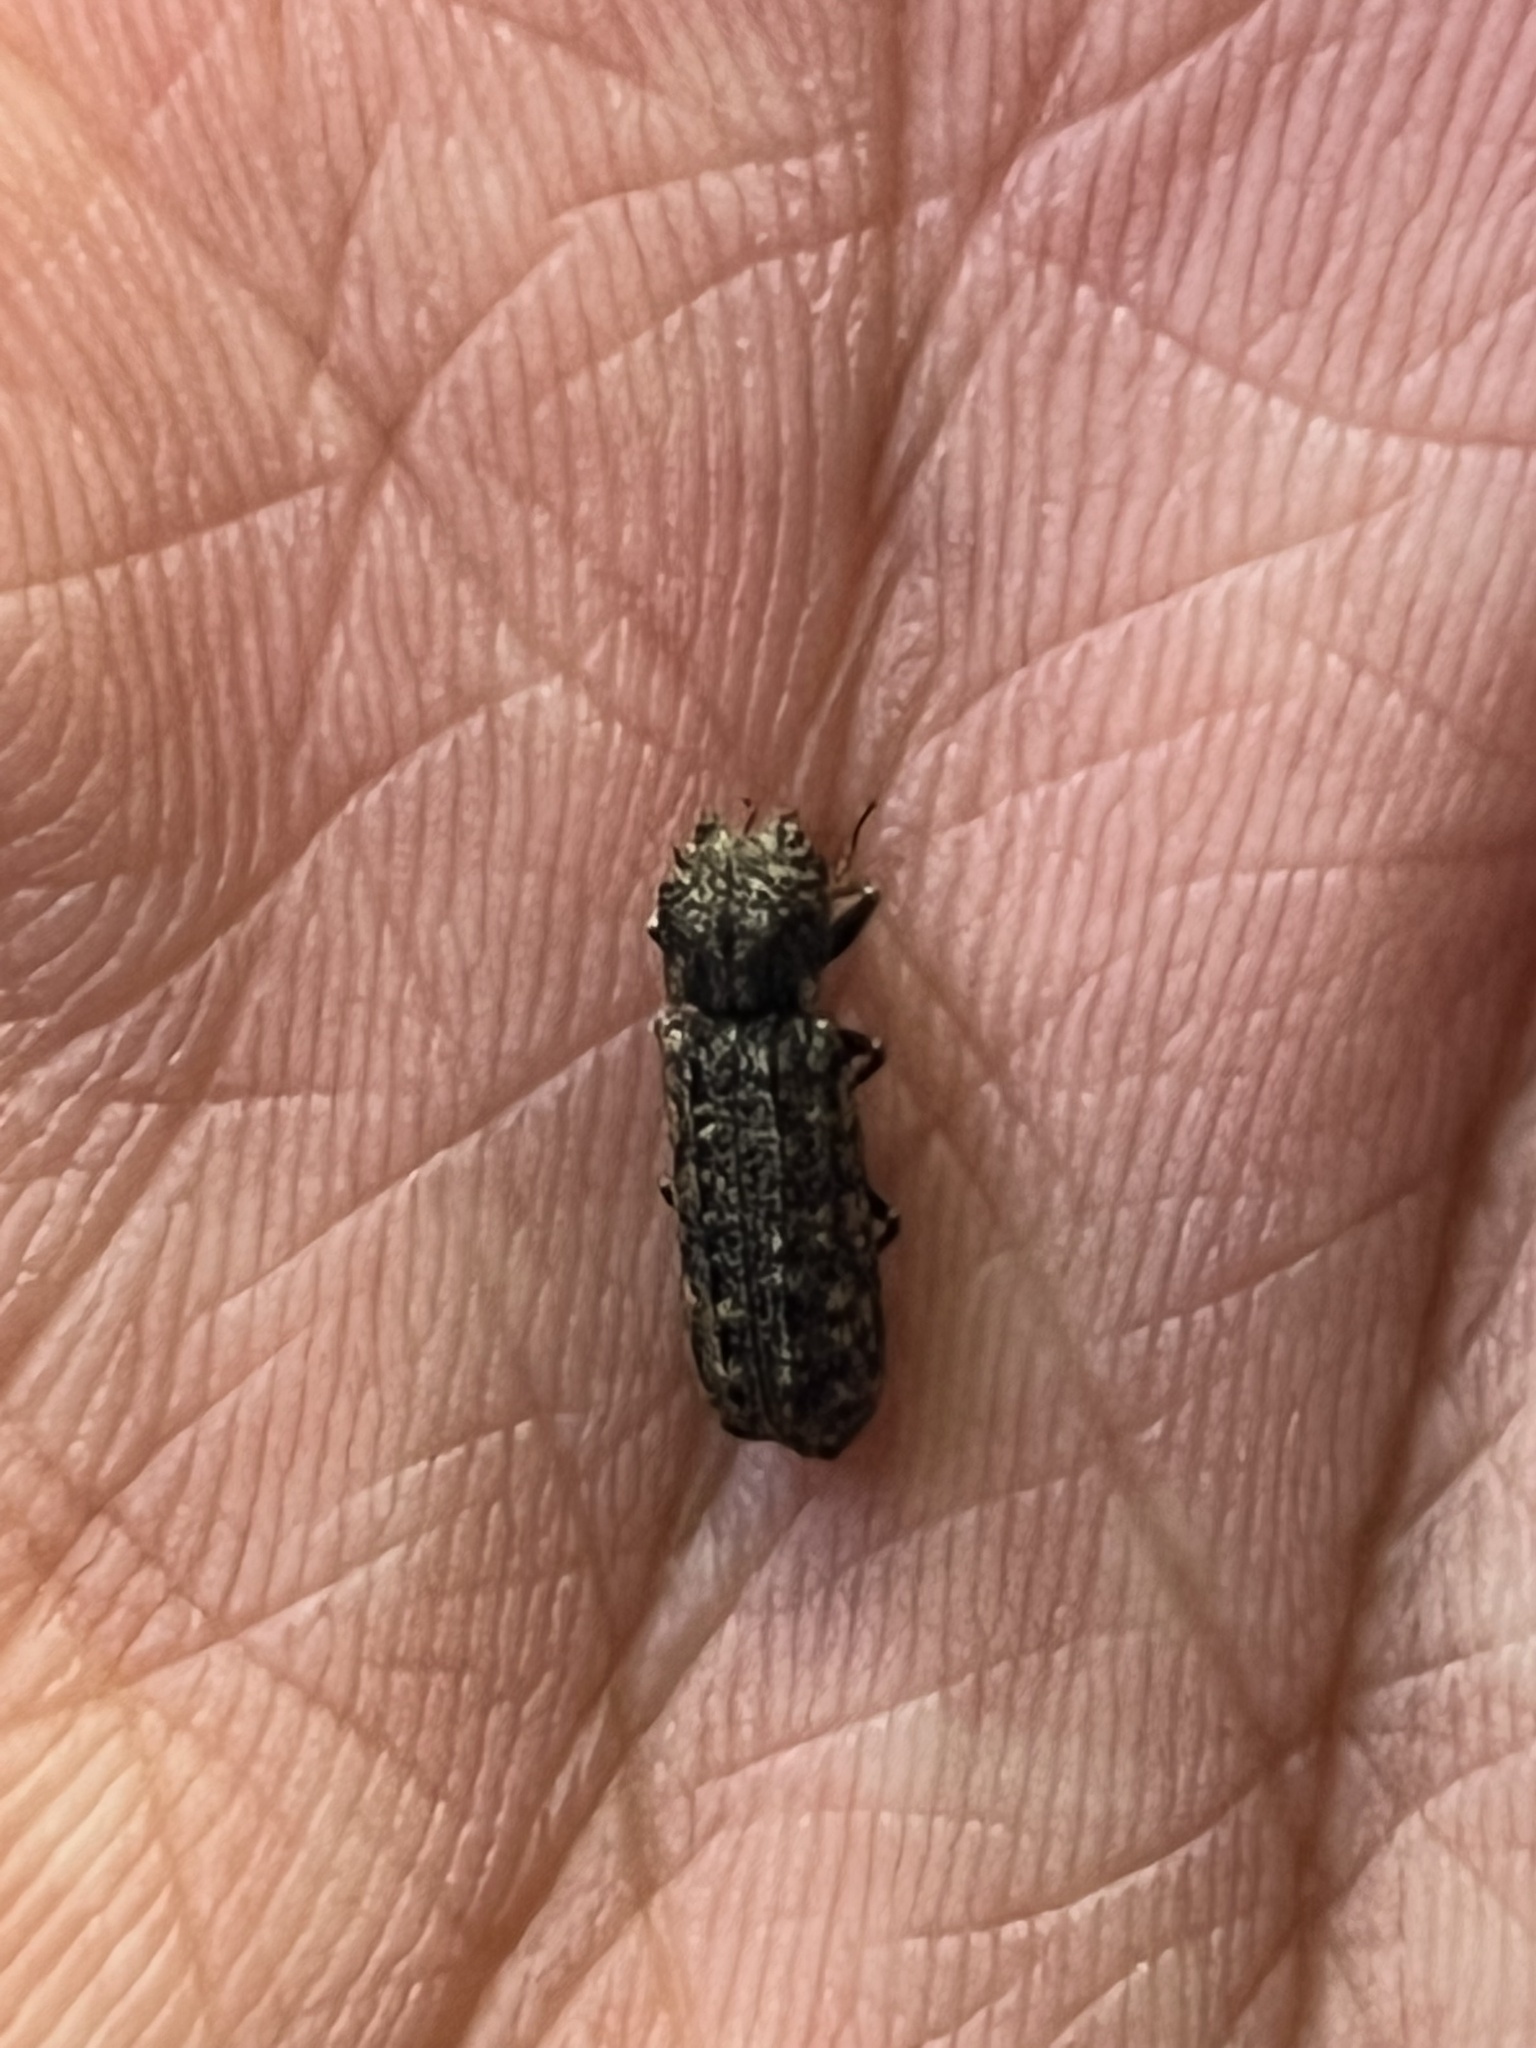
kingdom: Animalia
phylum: Arthropoda
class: Insecta
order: Coleoptera
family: Bostrichidae
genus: Lichenophanes
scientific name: Lichenophanes bicornis
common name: Two-horned powder-post beetle
